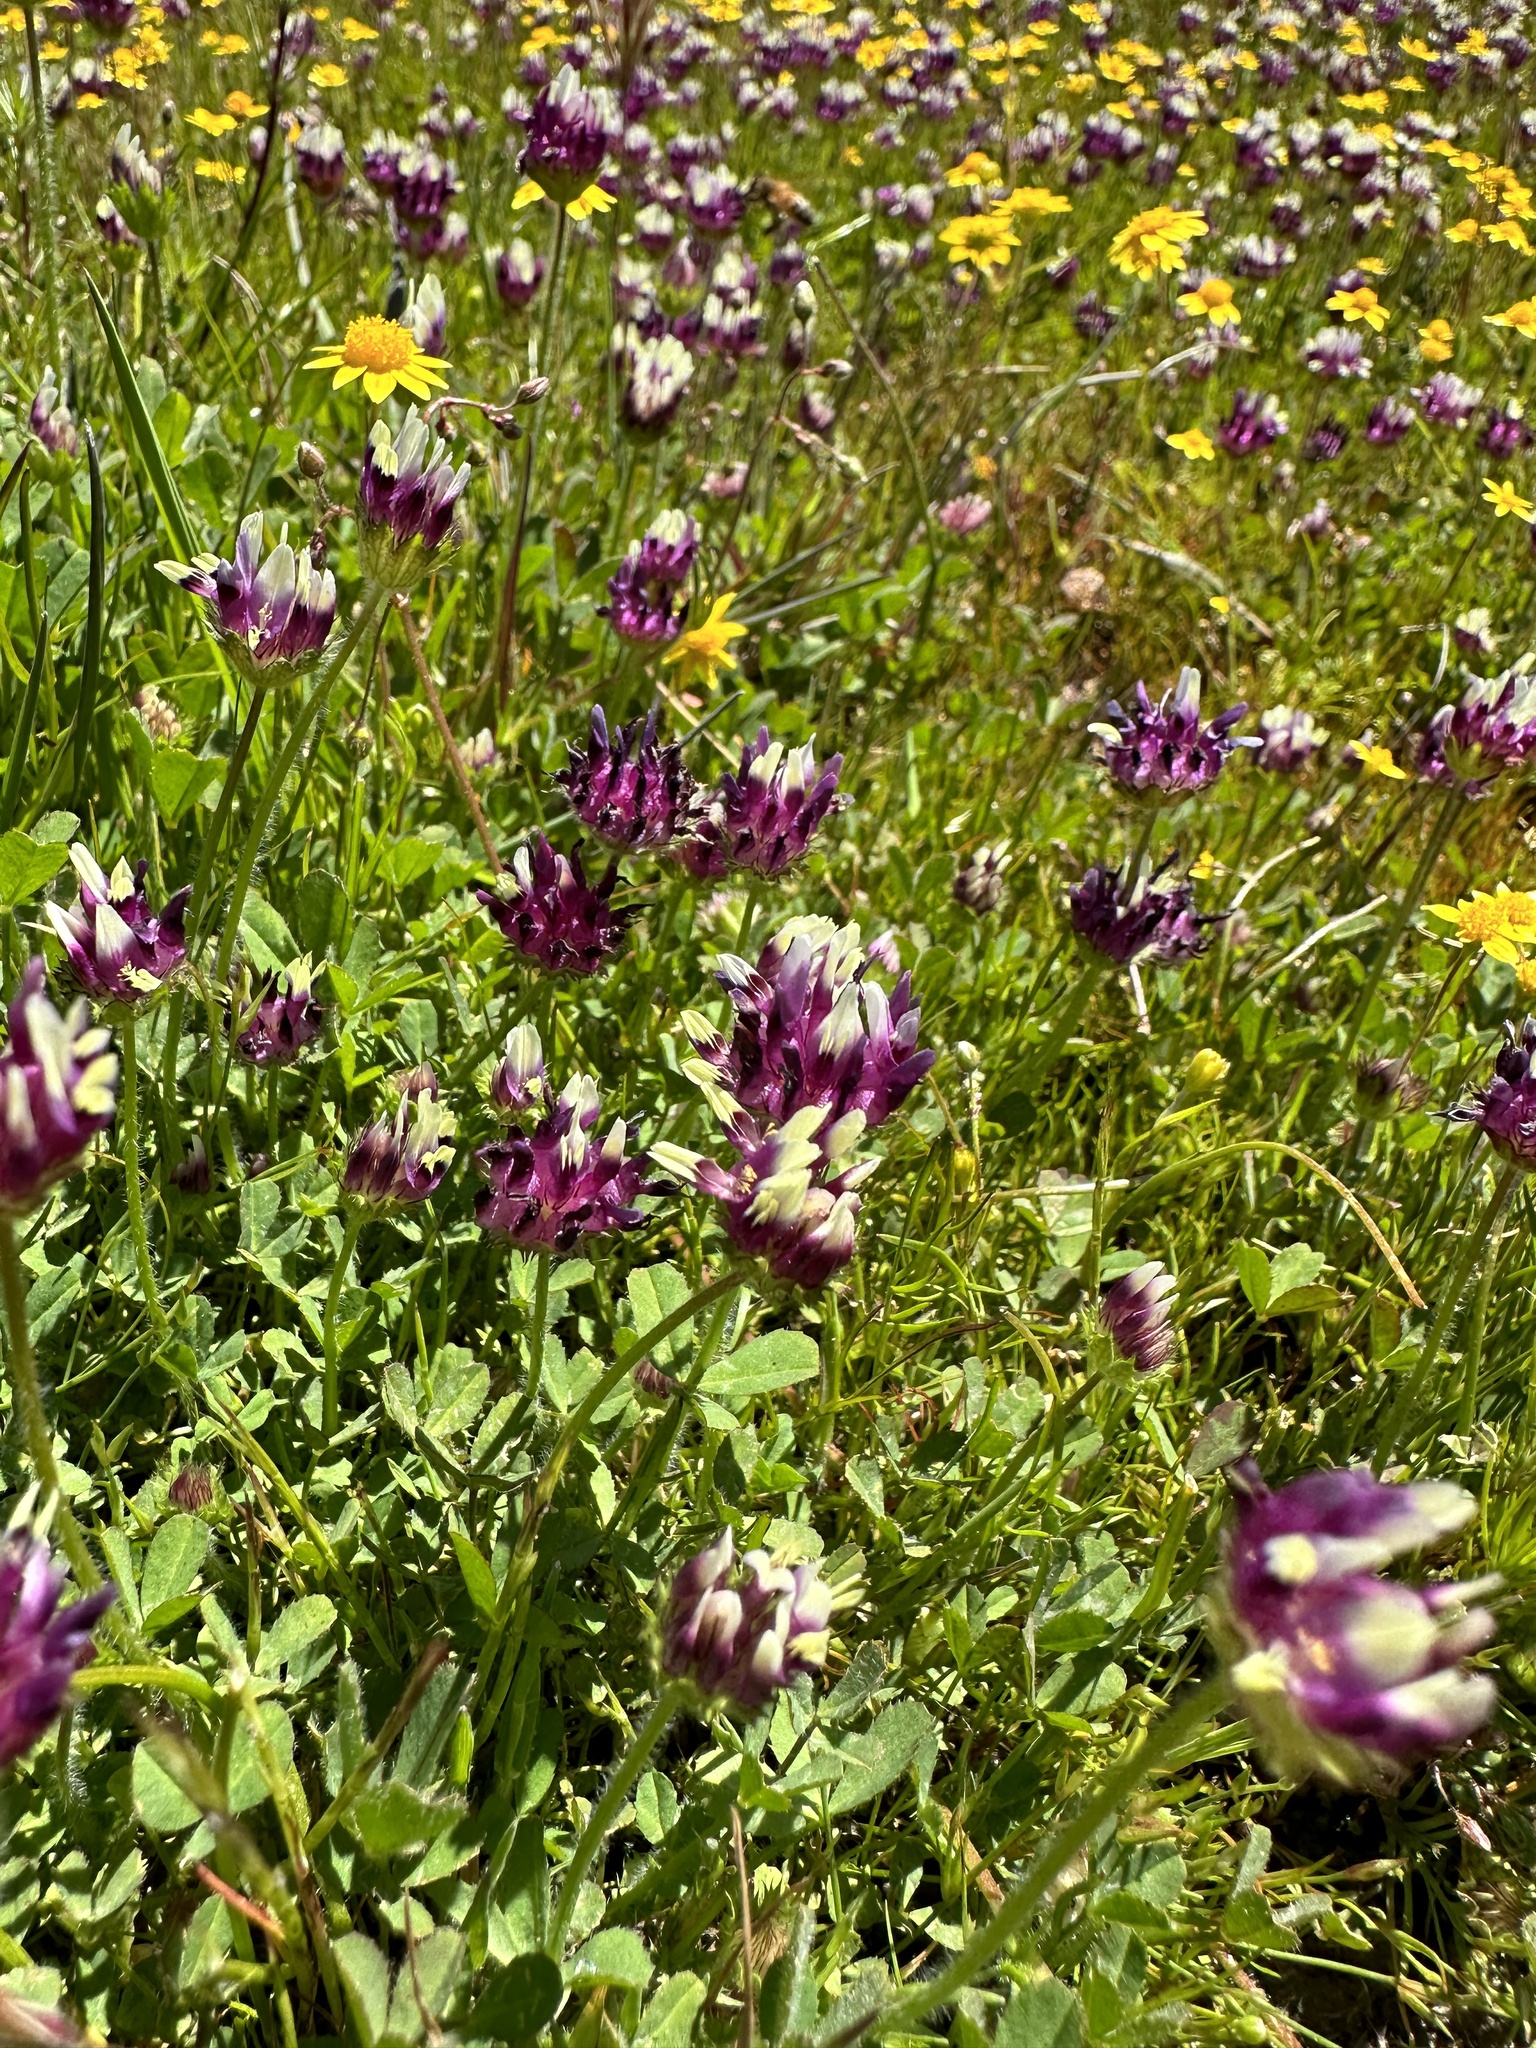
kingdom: Plantae
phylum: Tracheophyta
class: Magnoliopsida
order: Fabales
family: Fabaceae
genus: Trifolium
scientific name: Trifolium barbigerum
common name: Bearded clover
